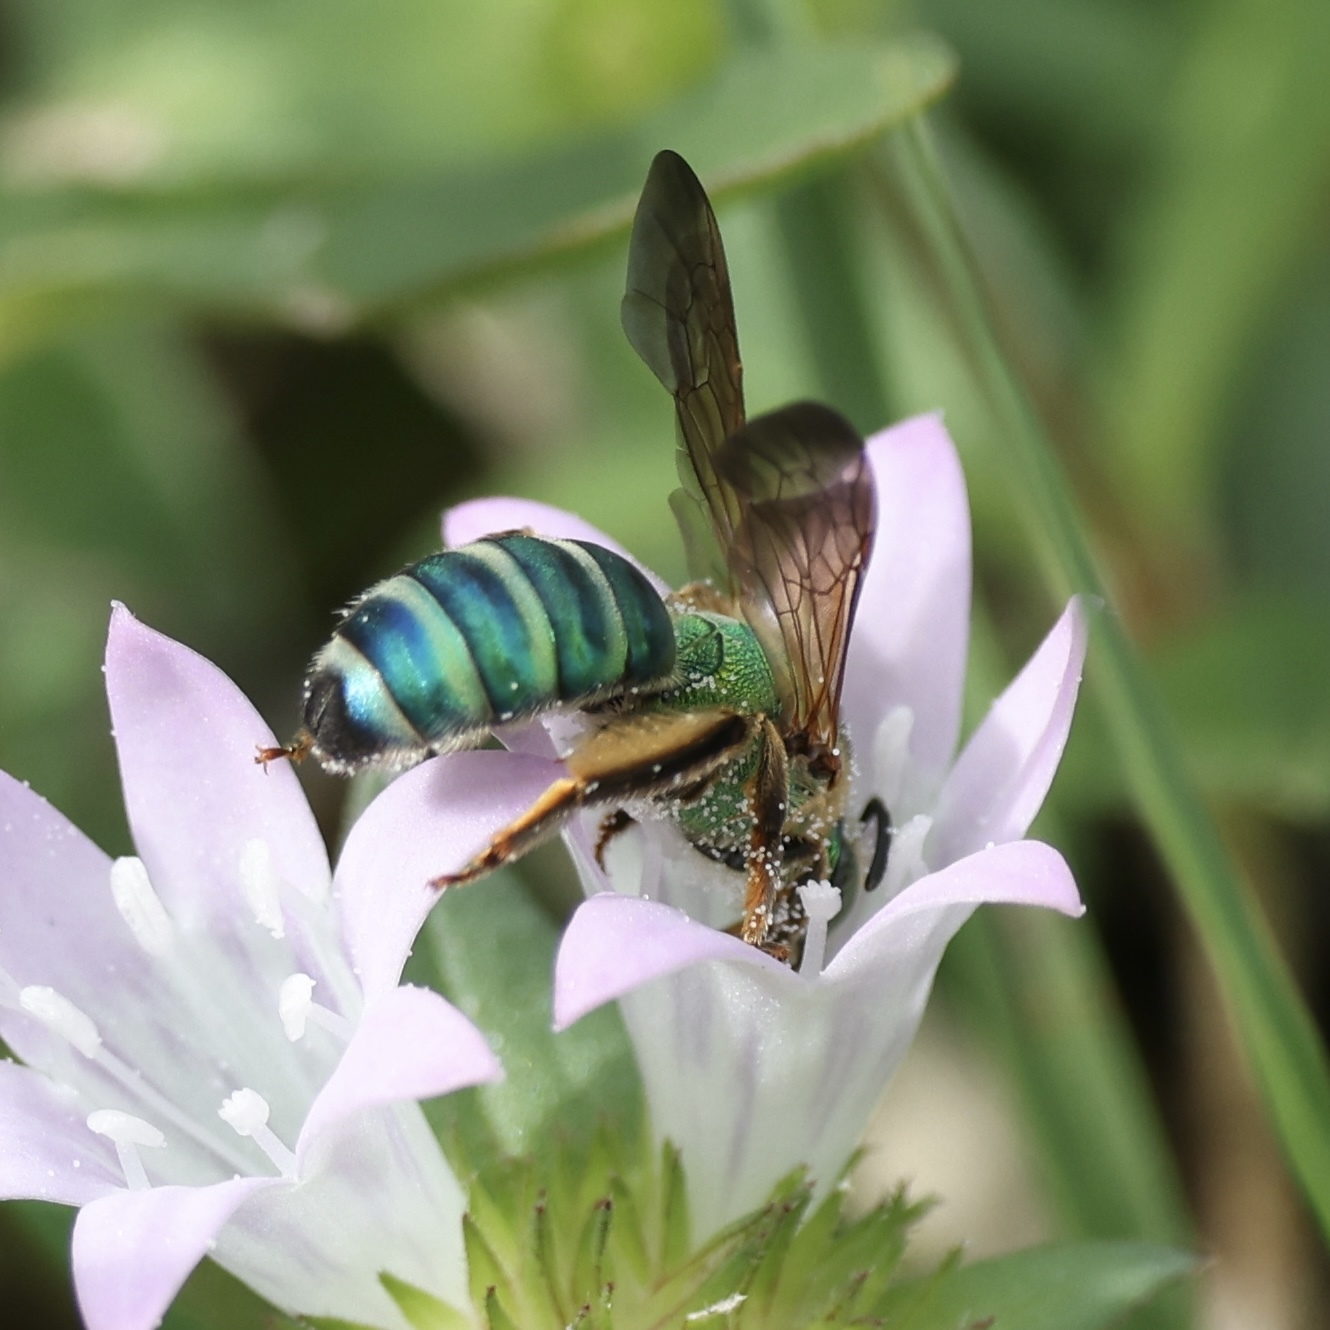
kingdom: Animalia
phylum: Arthropoda
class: Insecta
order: Hymenoptera
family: Halictidae
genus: Agapostemon
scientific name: Agapostemon splendens
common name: Brown-winged striped sweat bee
